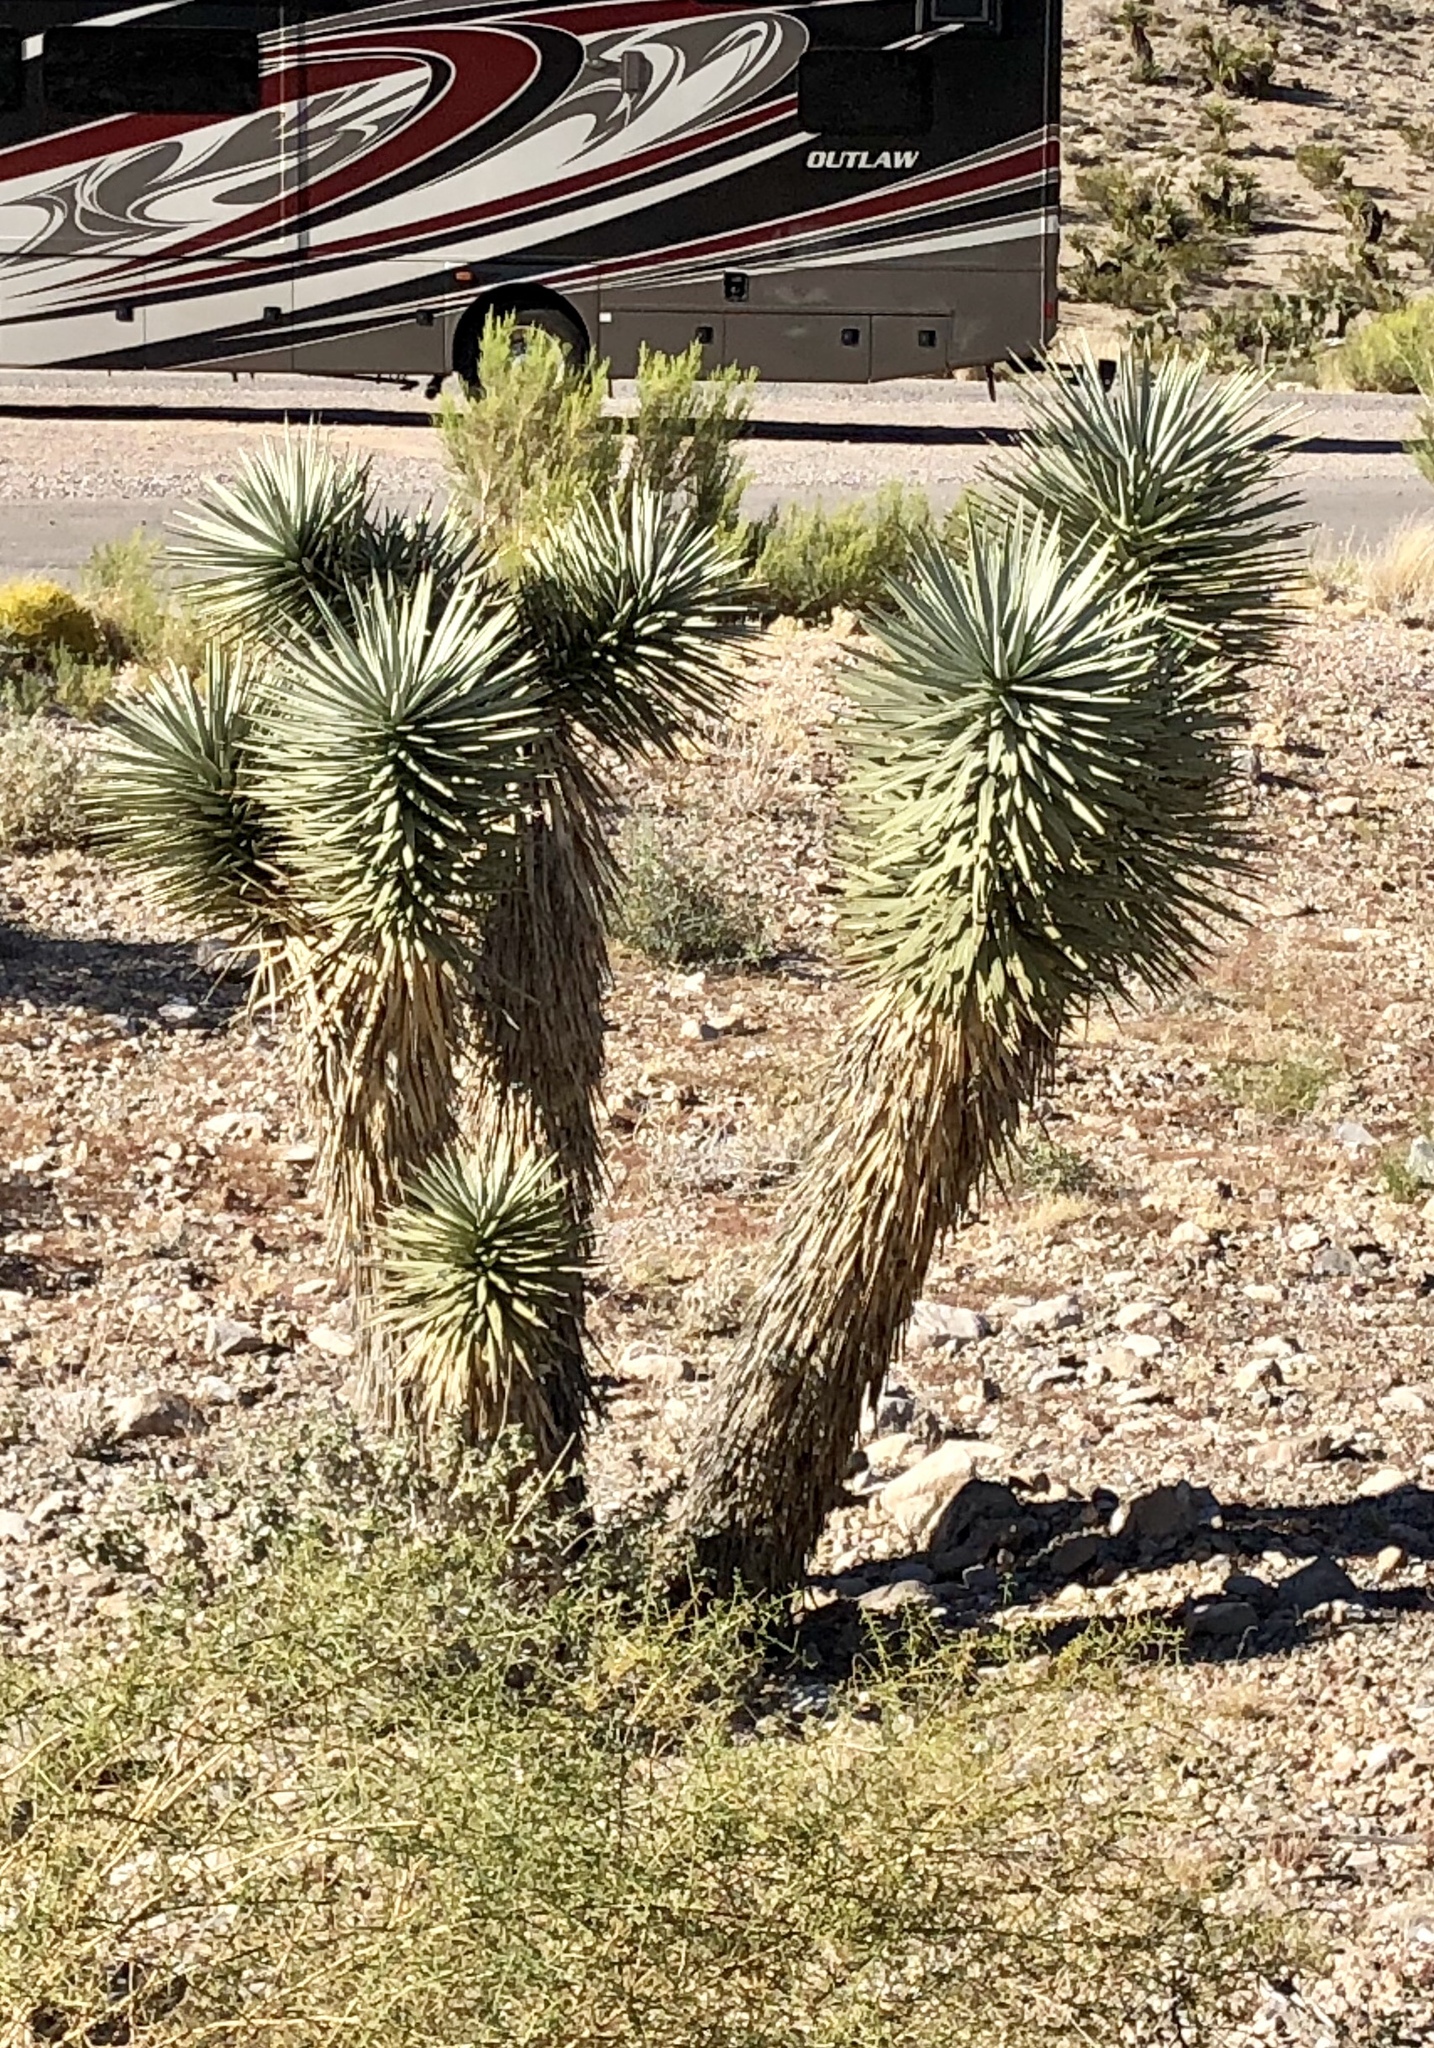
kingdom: Plantae
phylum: Tracheophyta
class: Liliopsida
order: Asparagales
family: Asparagaceae
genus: Yucca
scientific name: Yucca brevifolia
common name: Joshua tree
